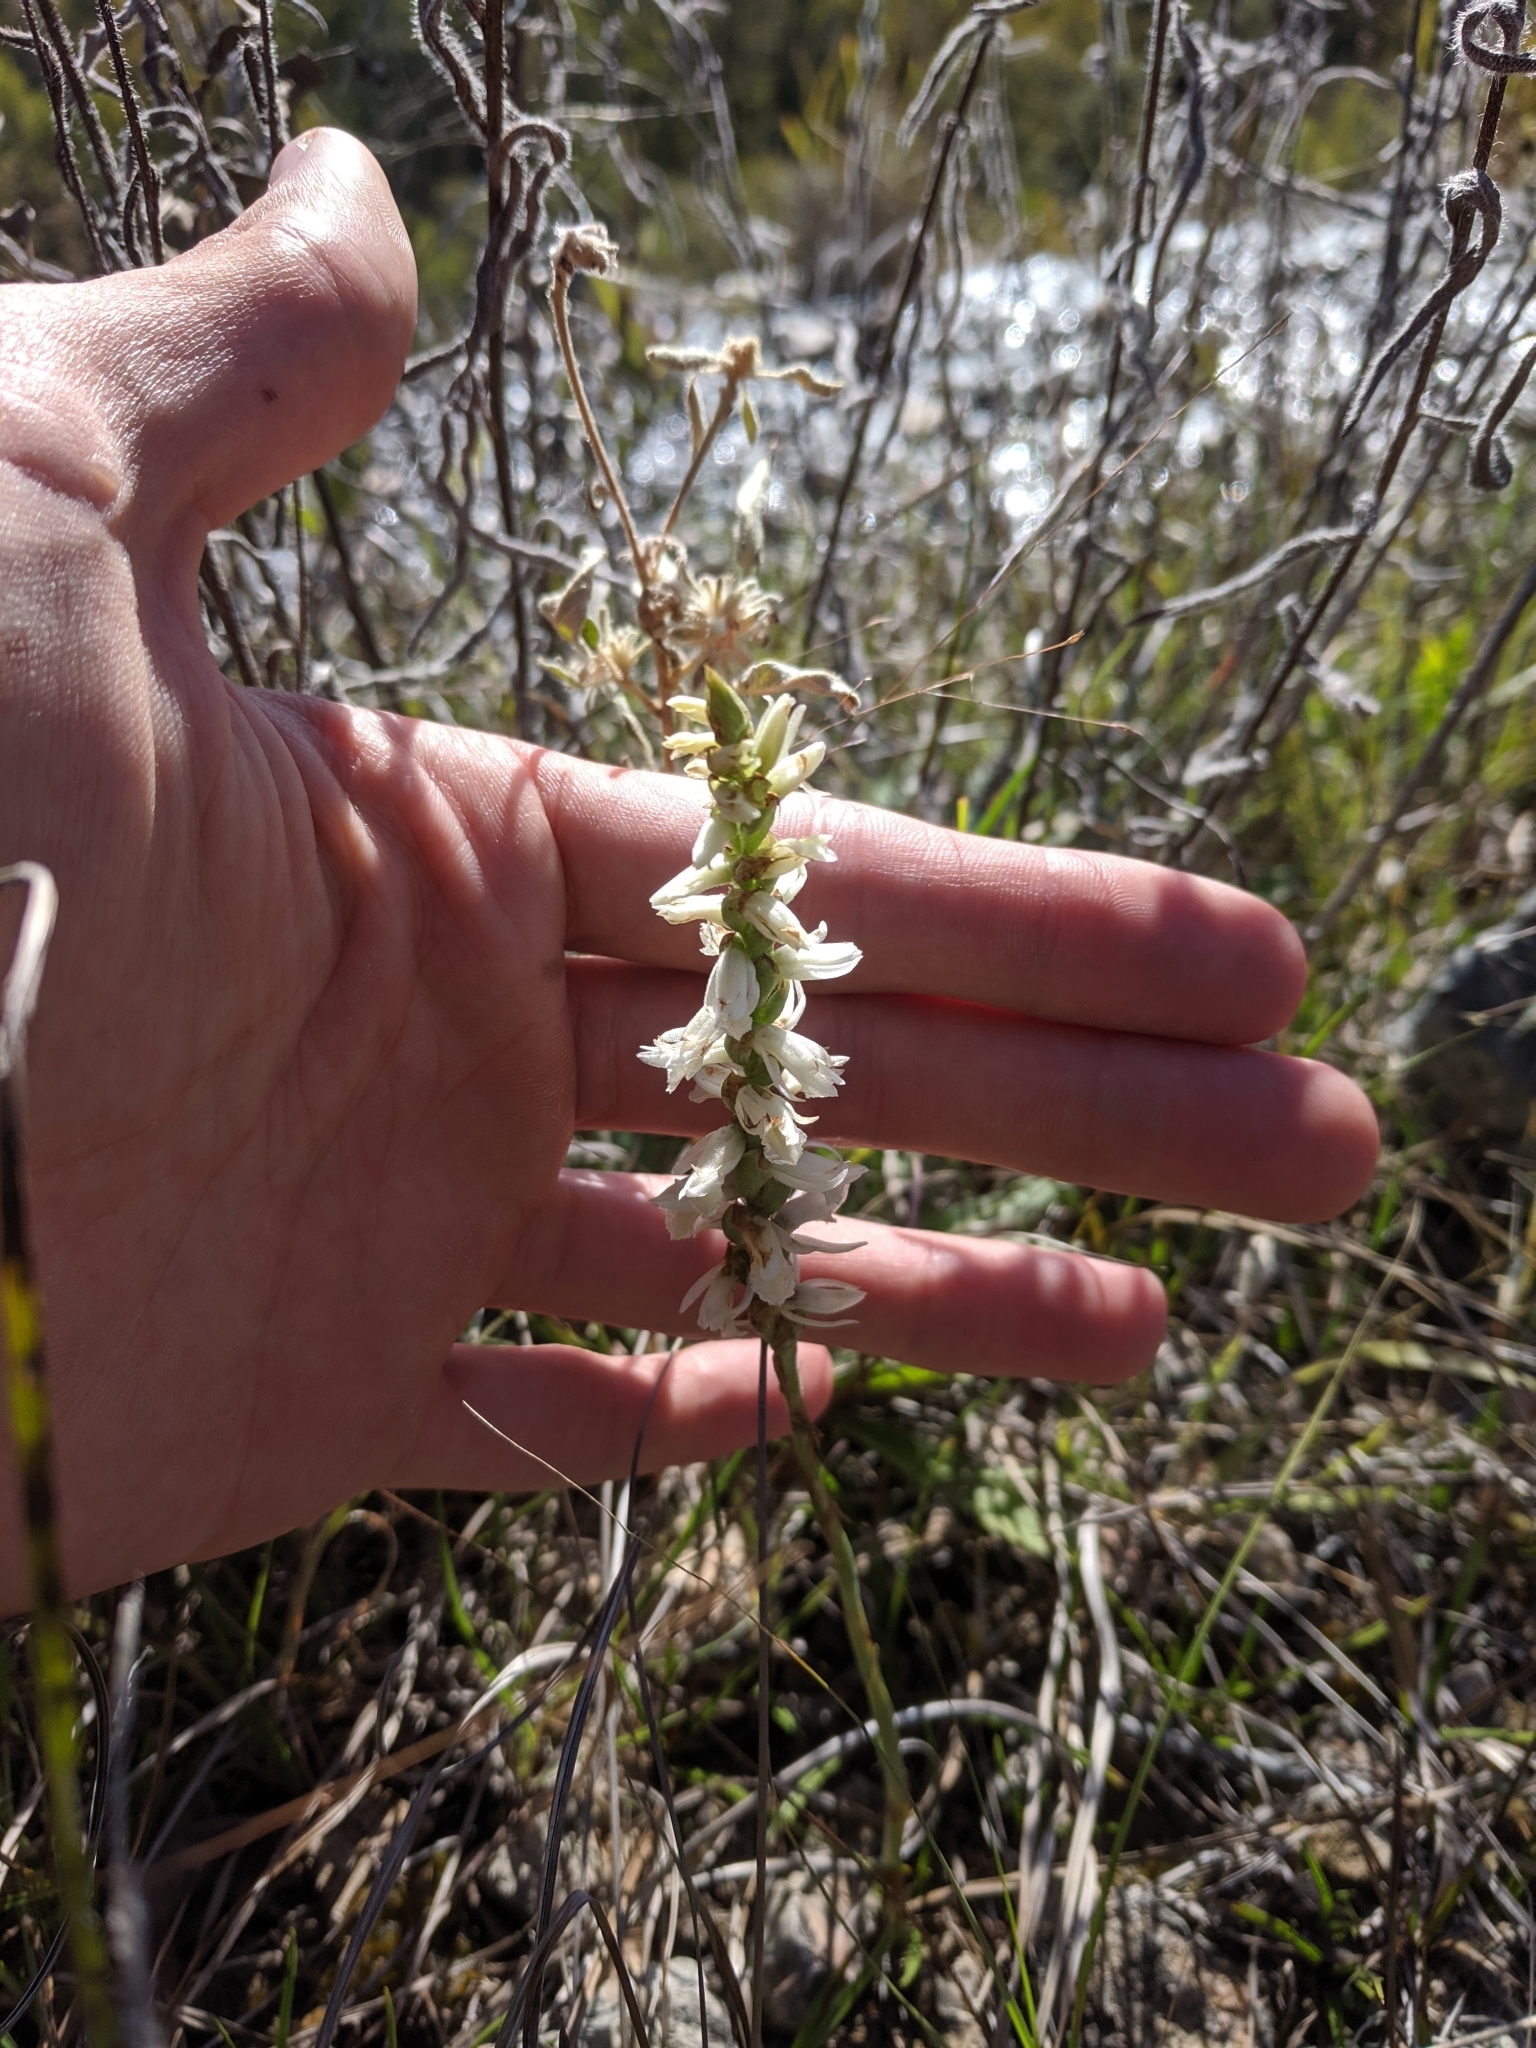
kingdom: Plantae
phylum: Tracheophyta
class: Liliopsida
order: Asparagales
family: Orchidaceae
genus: Spiranthes
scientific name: Spiranthes magnicamporum
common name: Great plains ladies'-tresses
